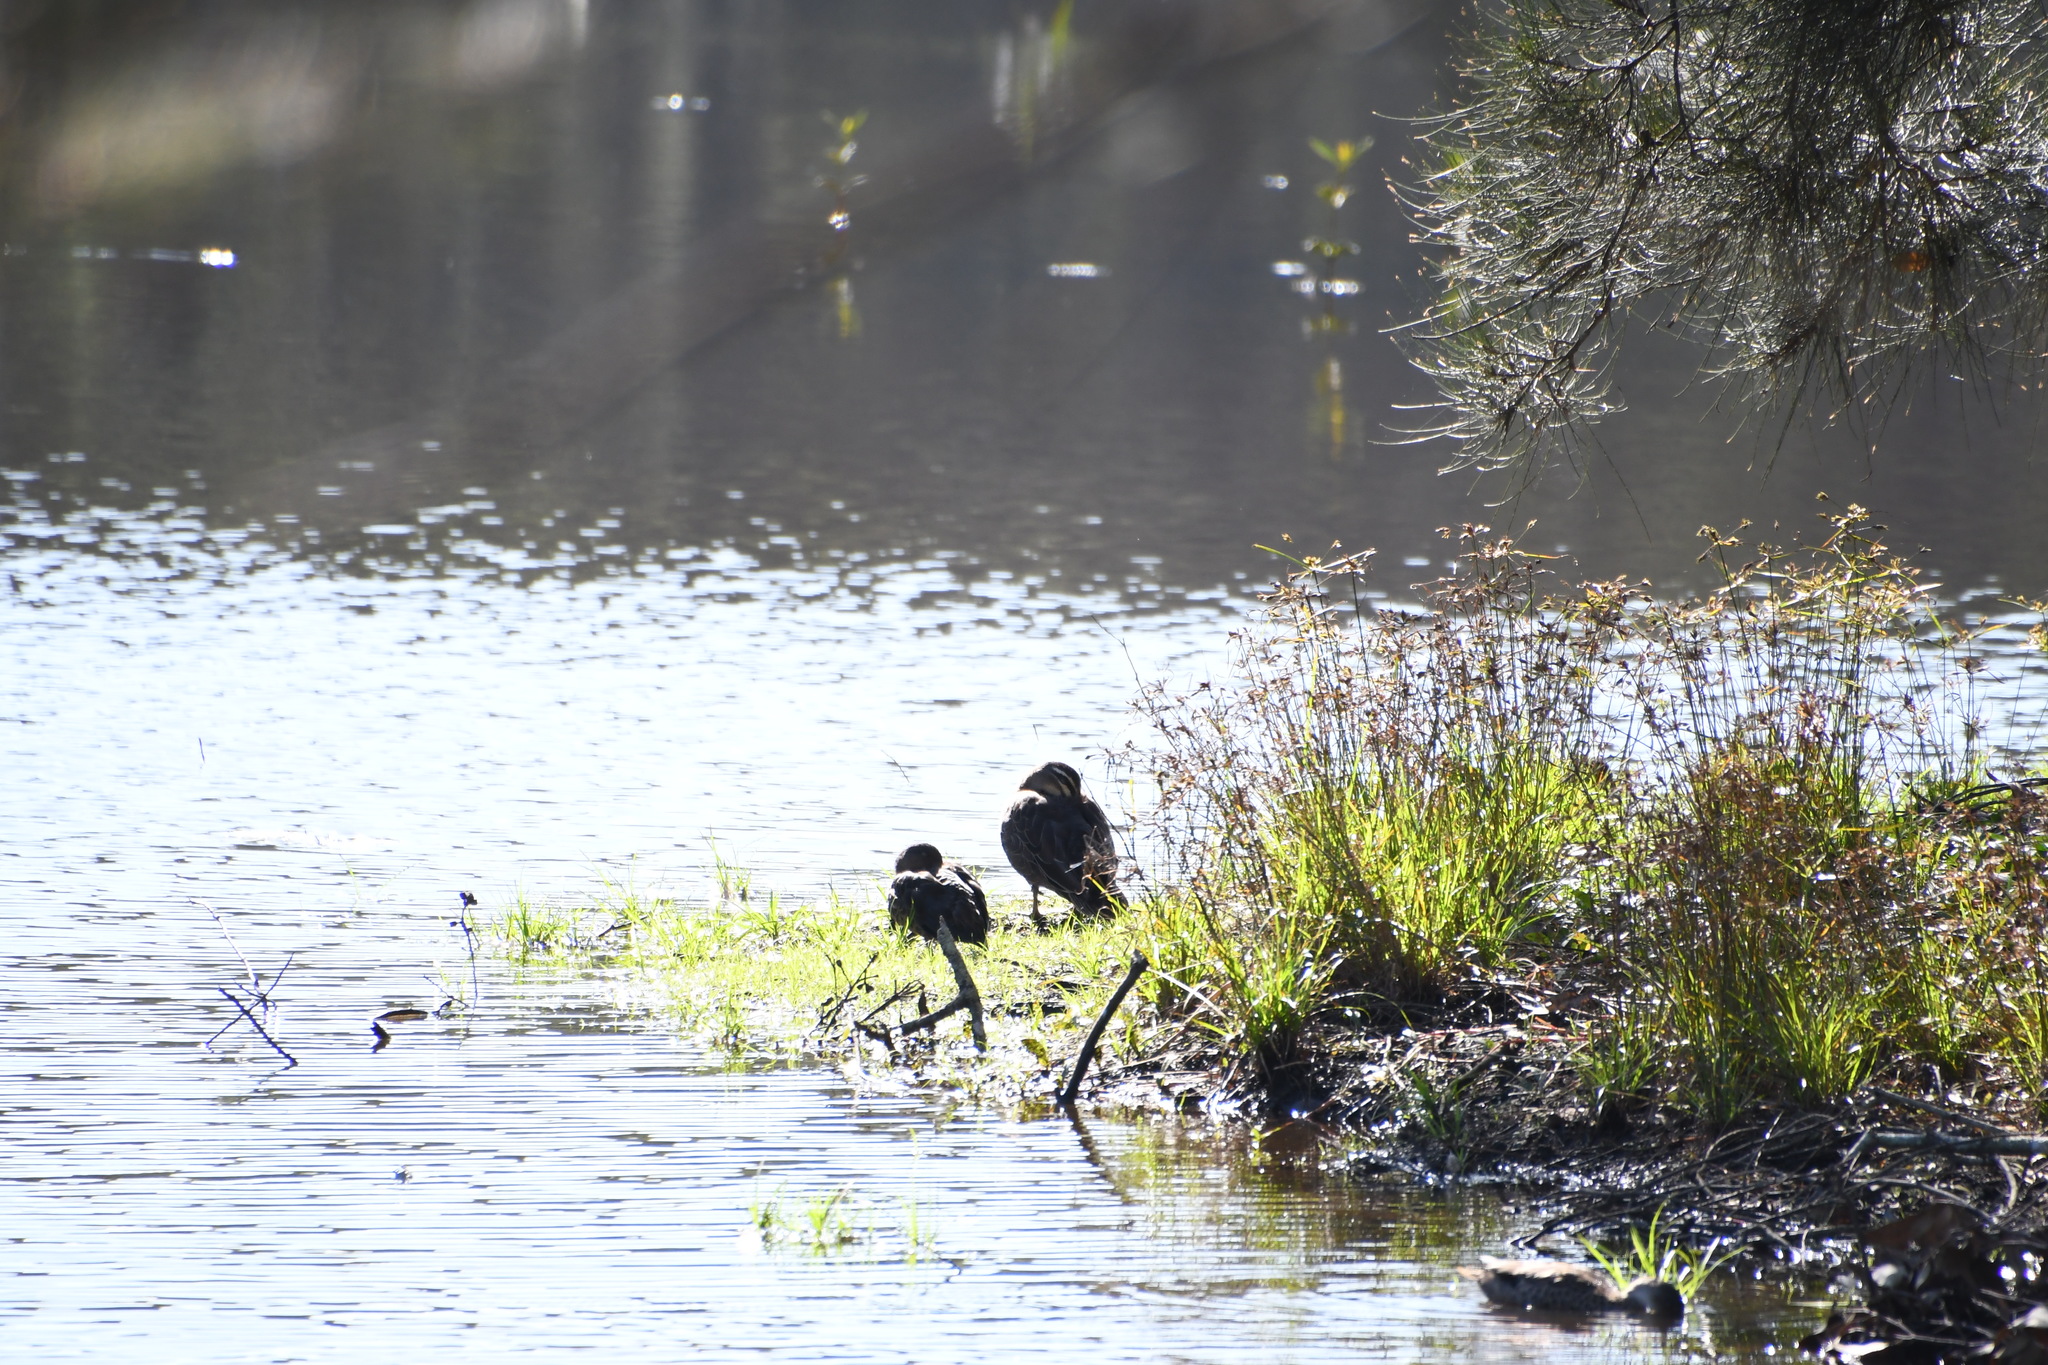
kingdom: Animalia
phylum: Chordata
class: Aves
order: Anseriformes
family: Anatidae
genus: Anas
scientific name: Anas superciliosa
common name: Pacific black duck
